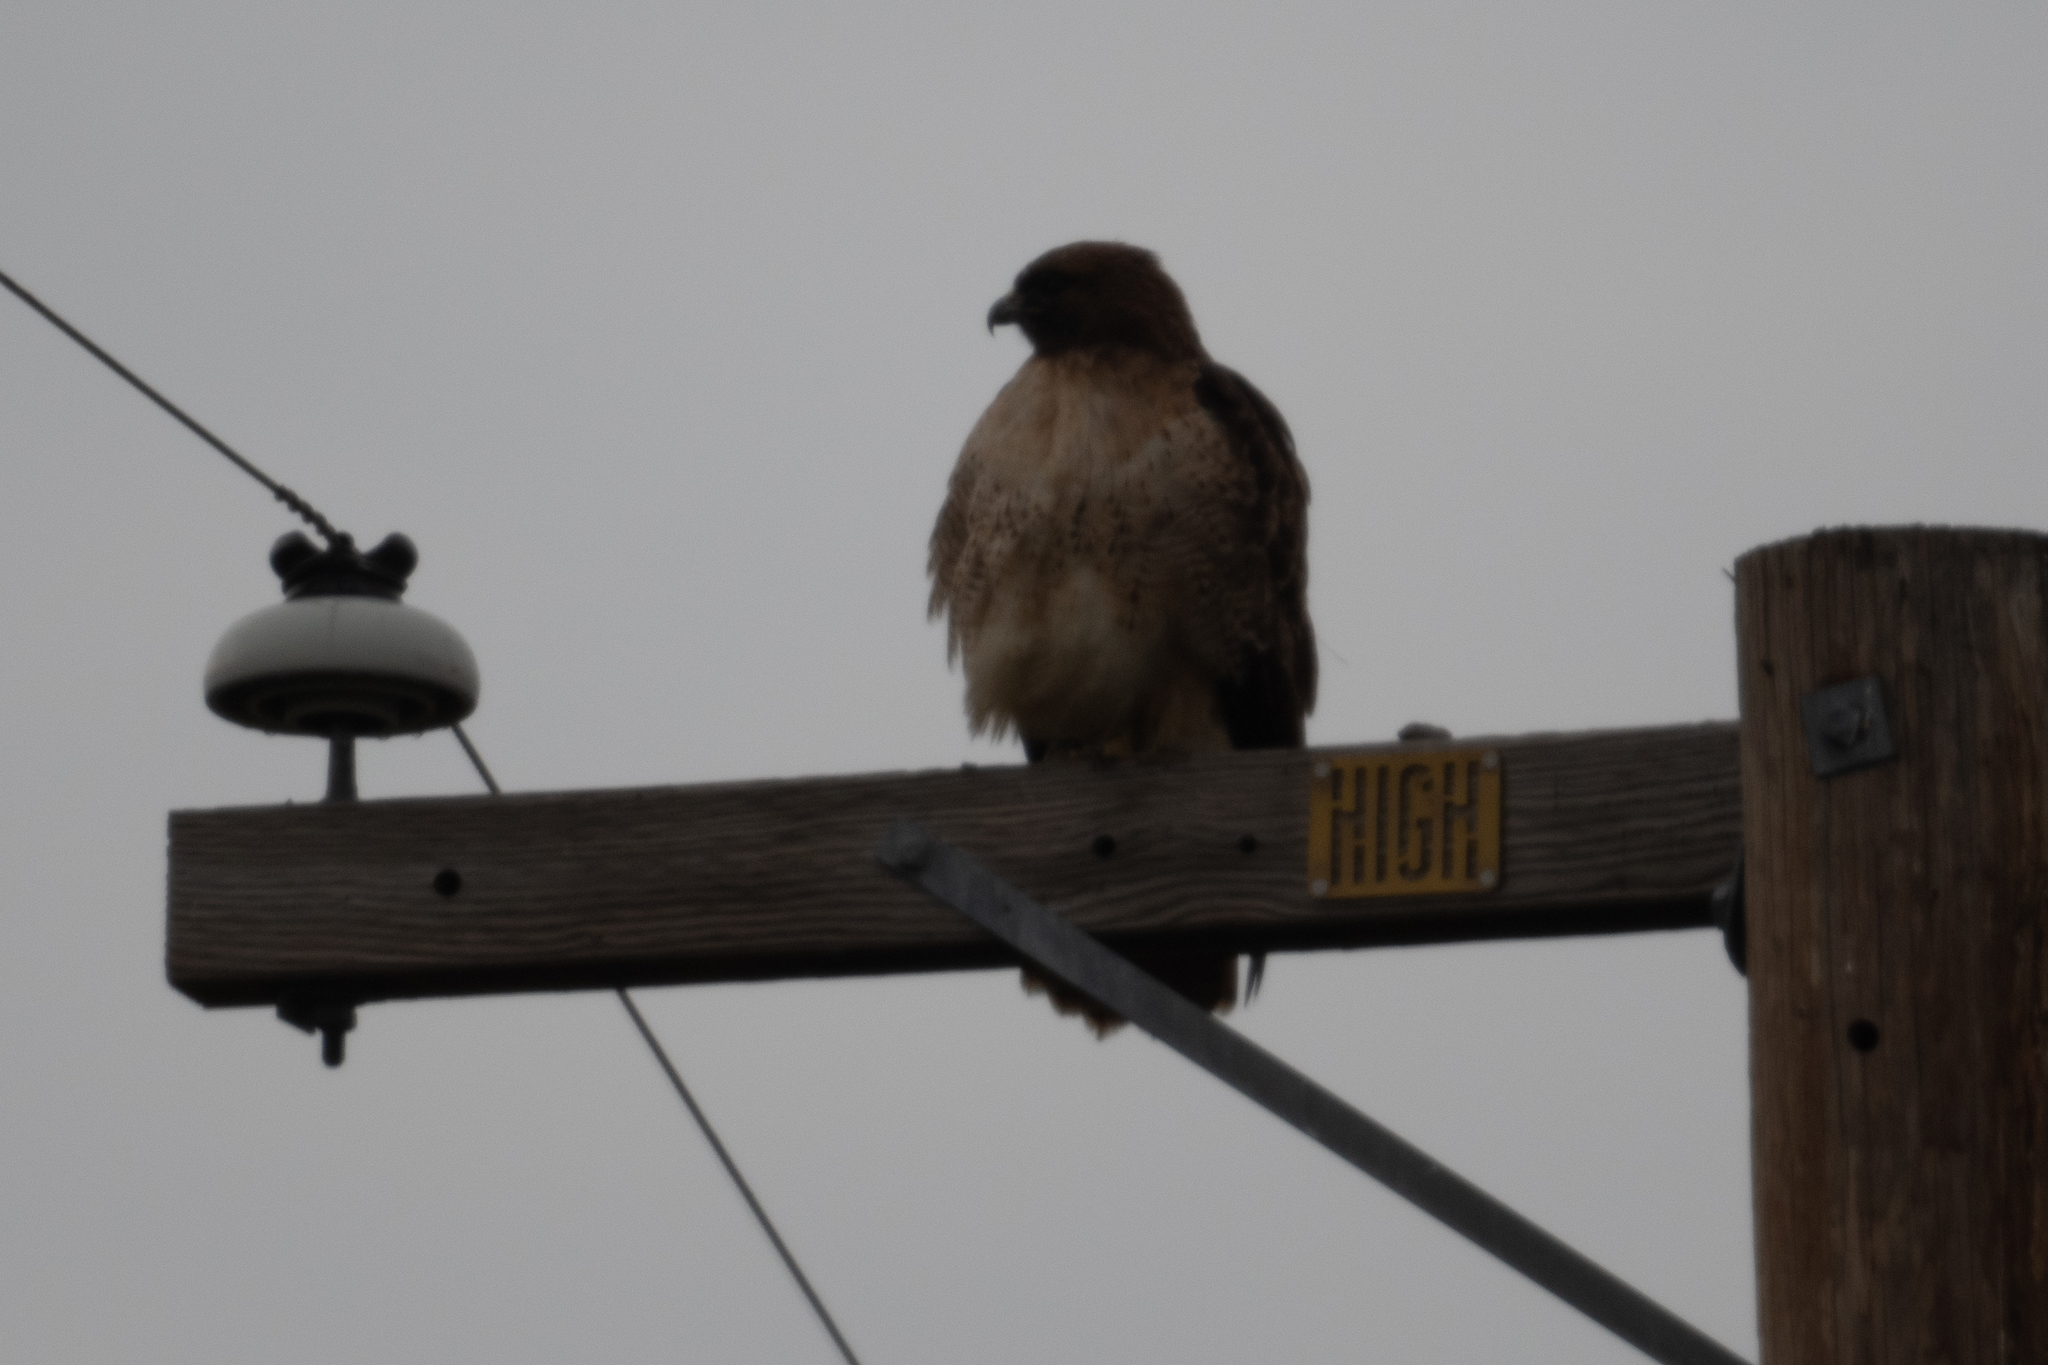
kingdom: Animalia
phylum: Chordata
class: Aves
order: Accipitriformes
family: Accipitridae
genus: Buteo
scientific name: Buteo jamaicensis
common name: Red-tailed hawk
